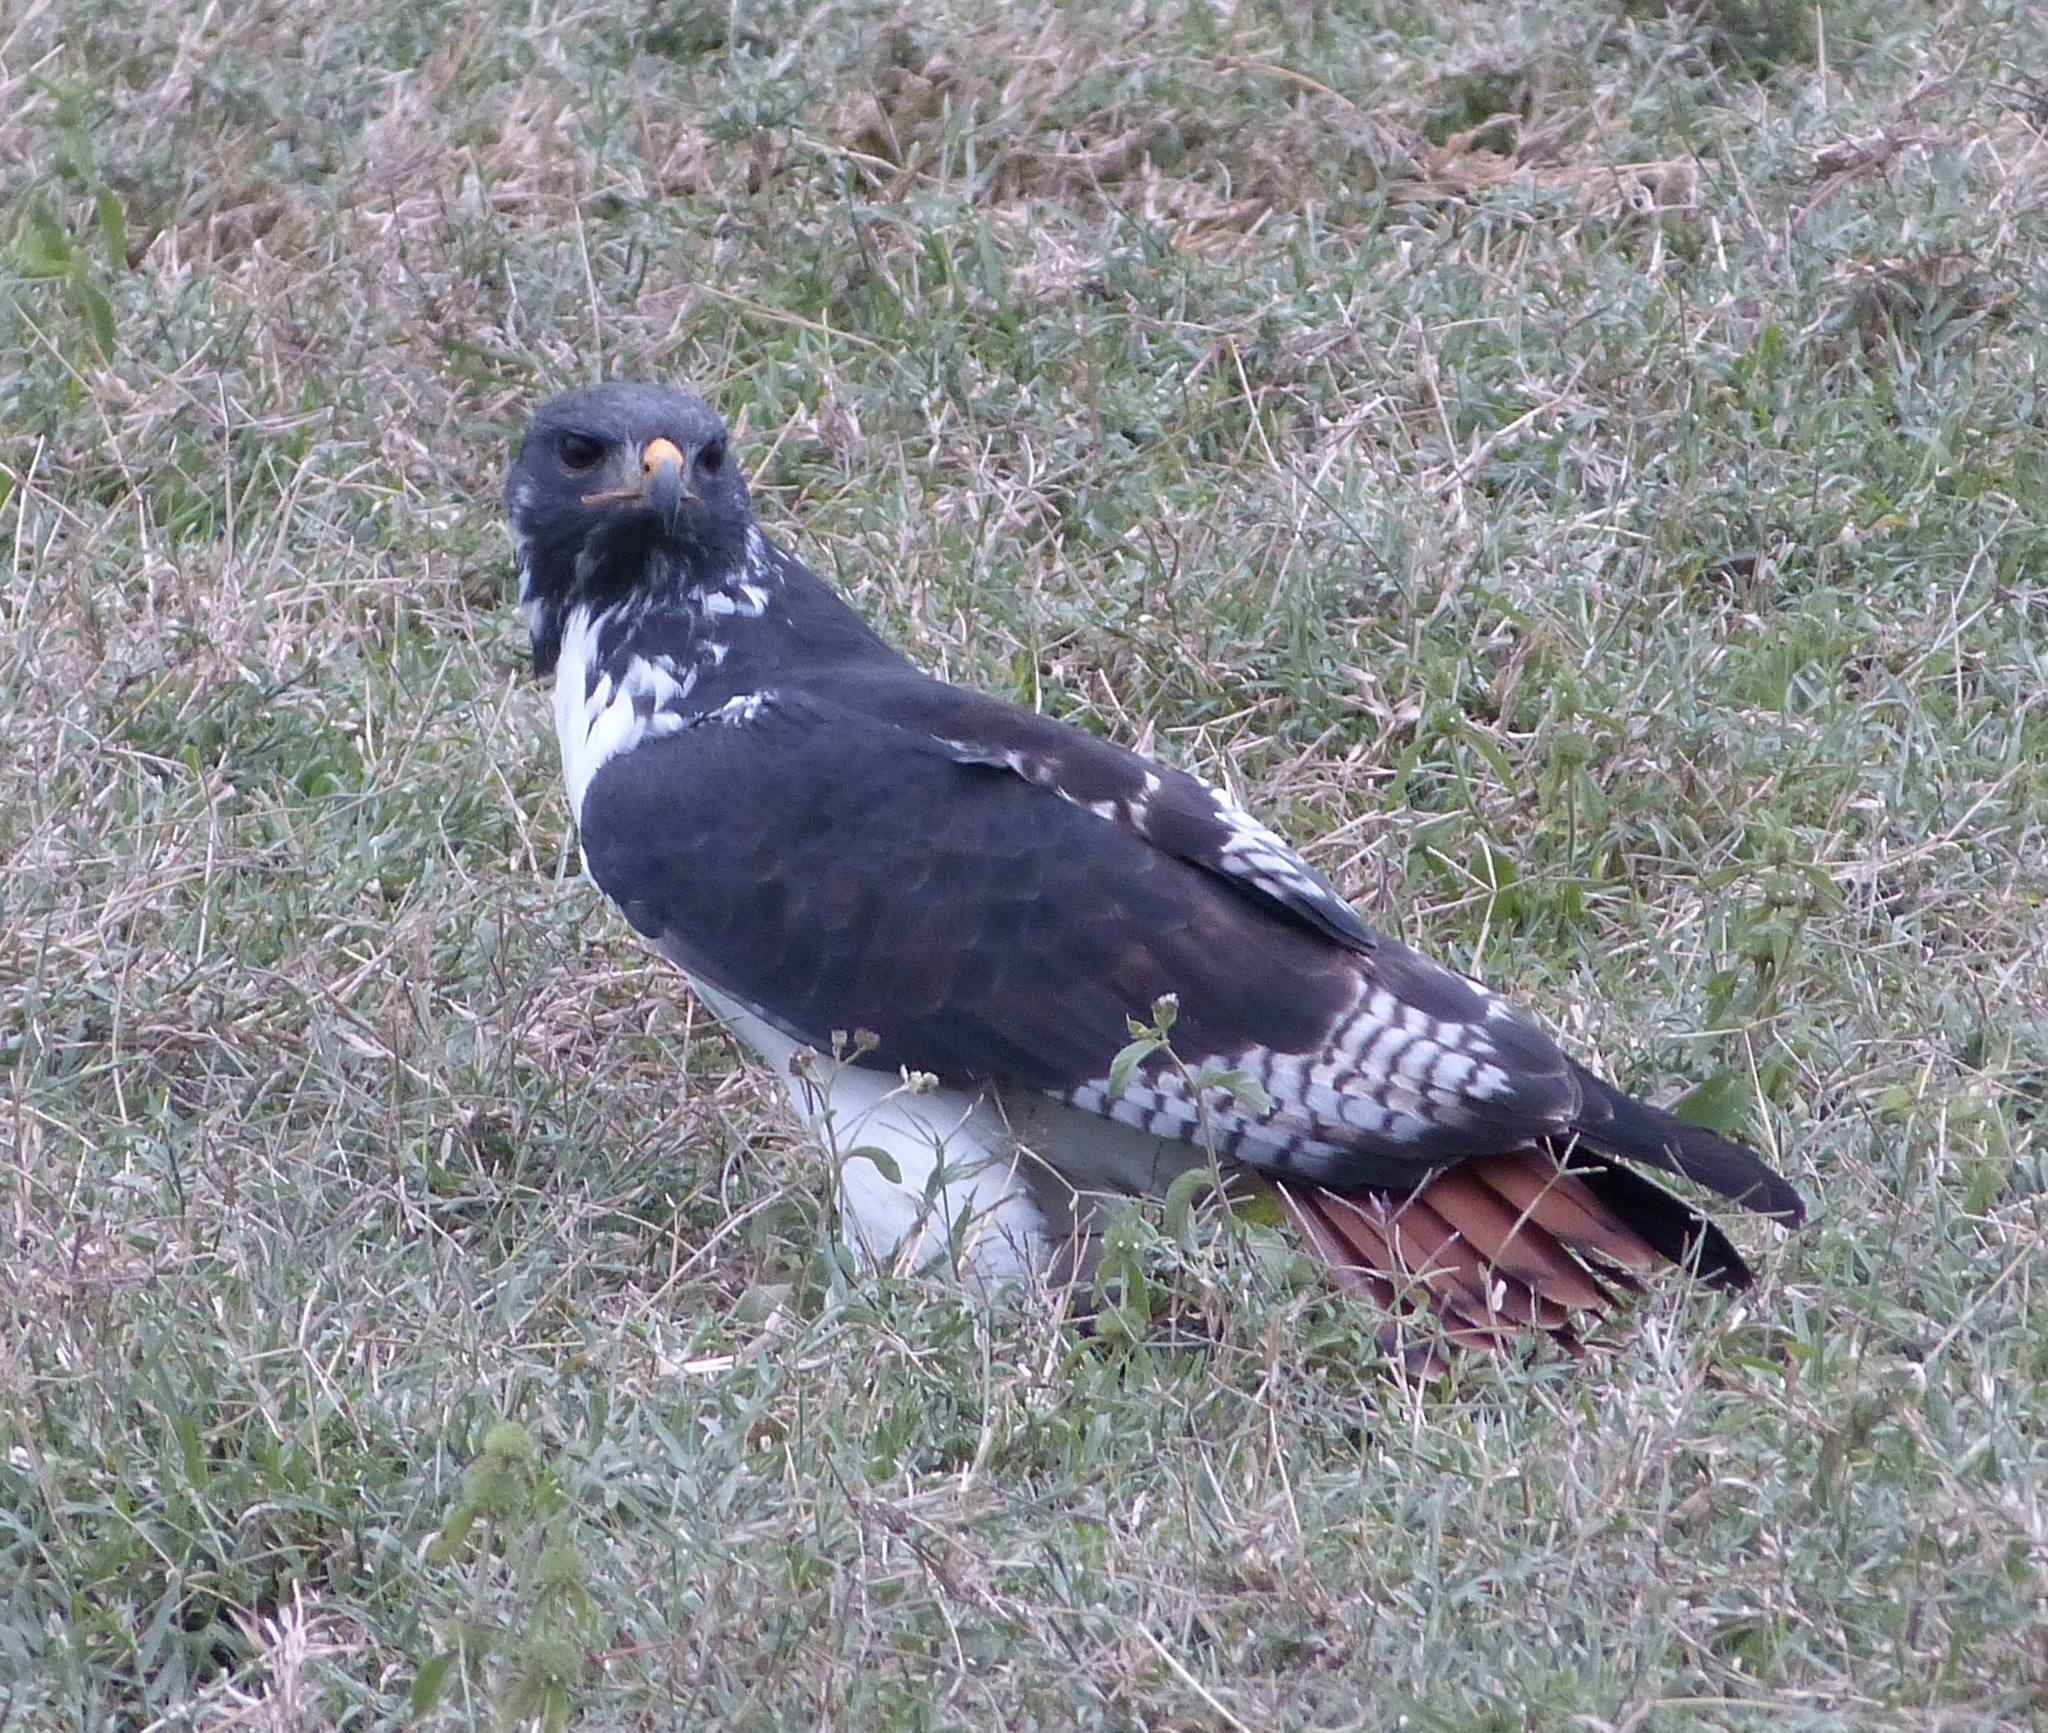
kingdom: Animalia
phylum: Chordata
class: Aves
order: Accipitriformes
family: Accipitridae
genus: Buteo
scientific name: Buteo augur
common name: Augur buzzard
